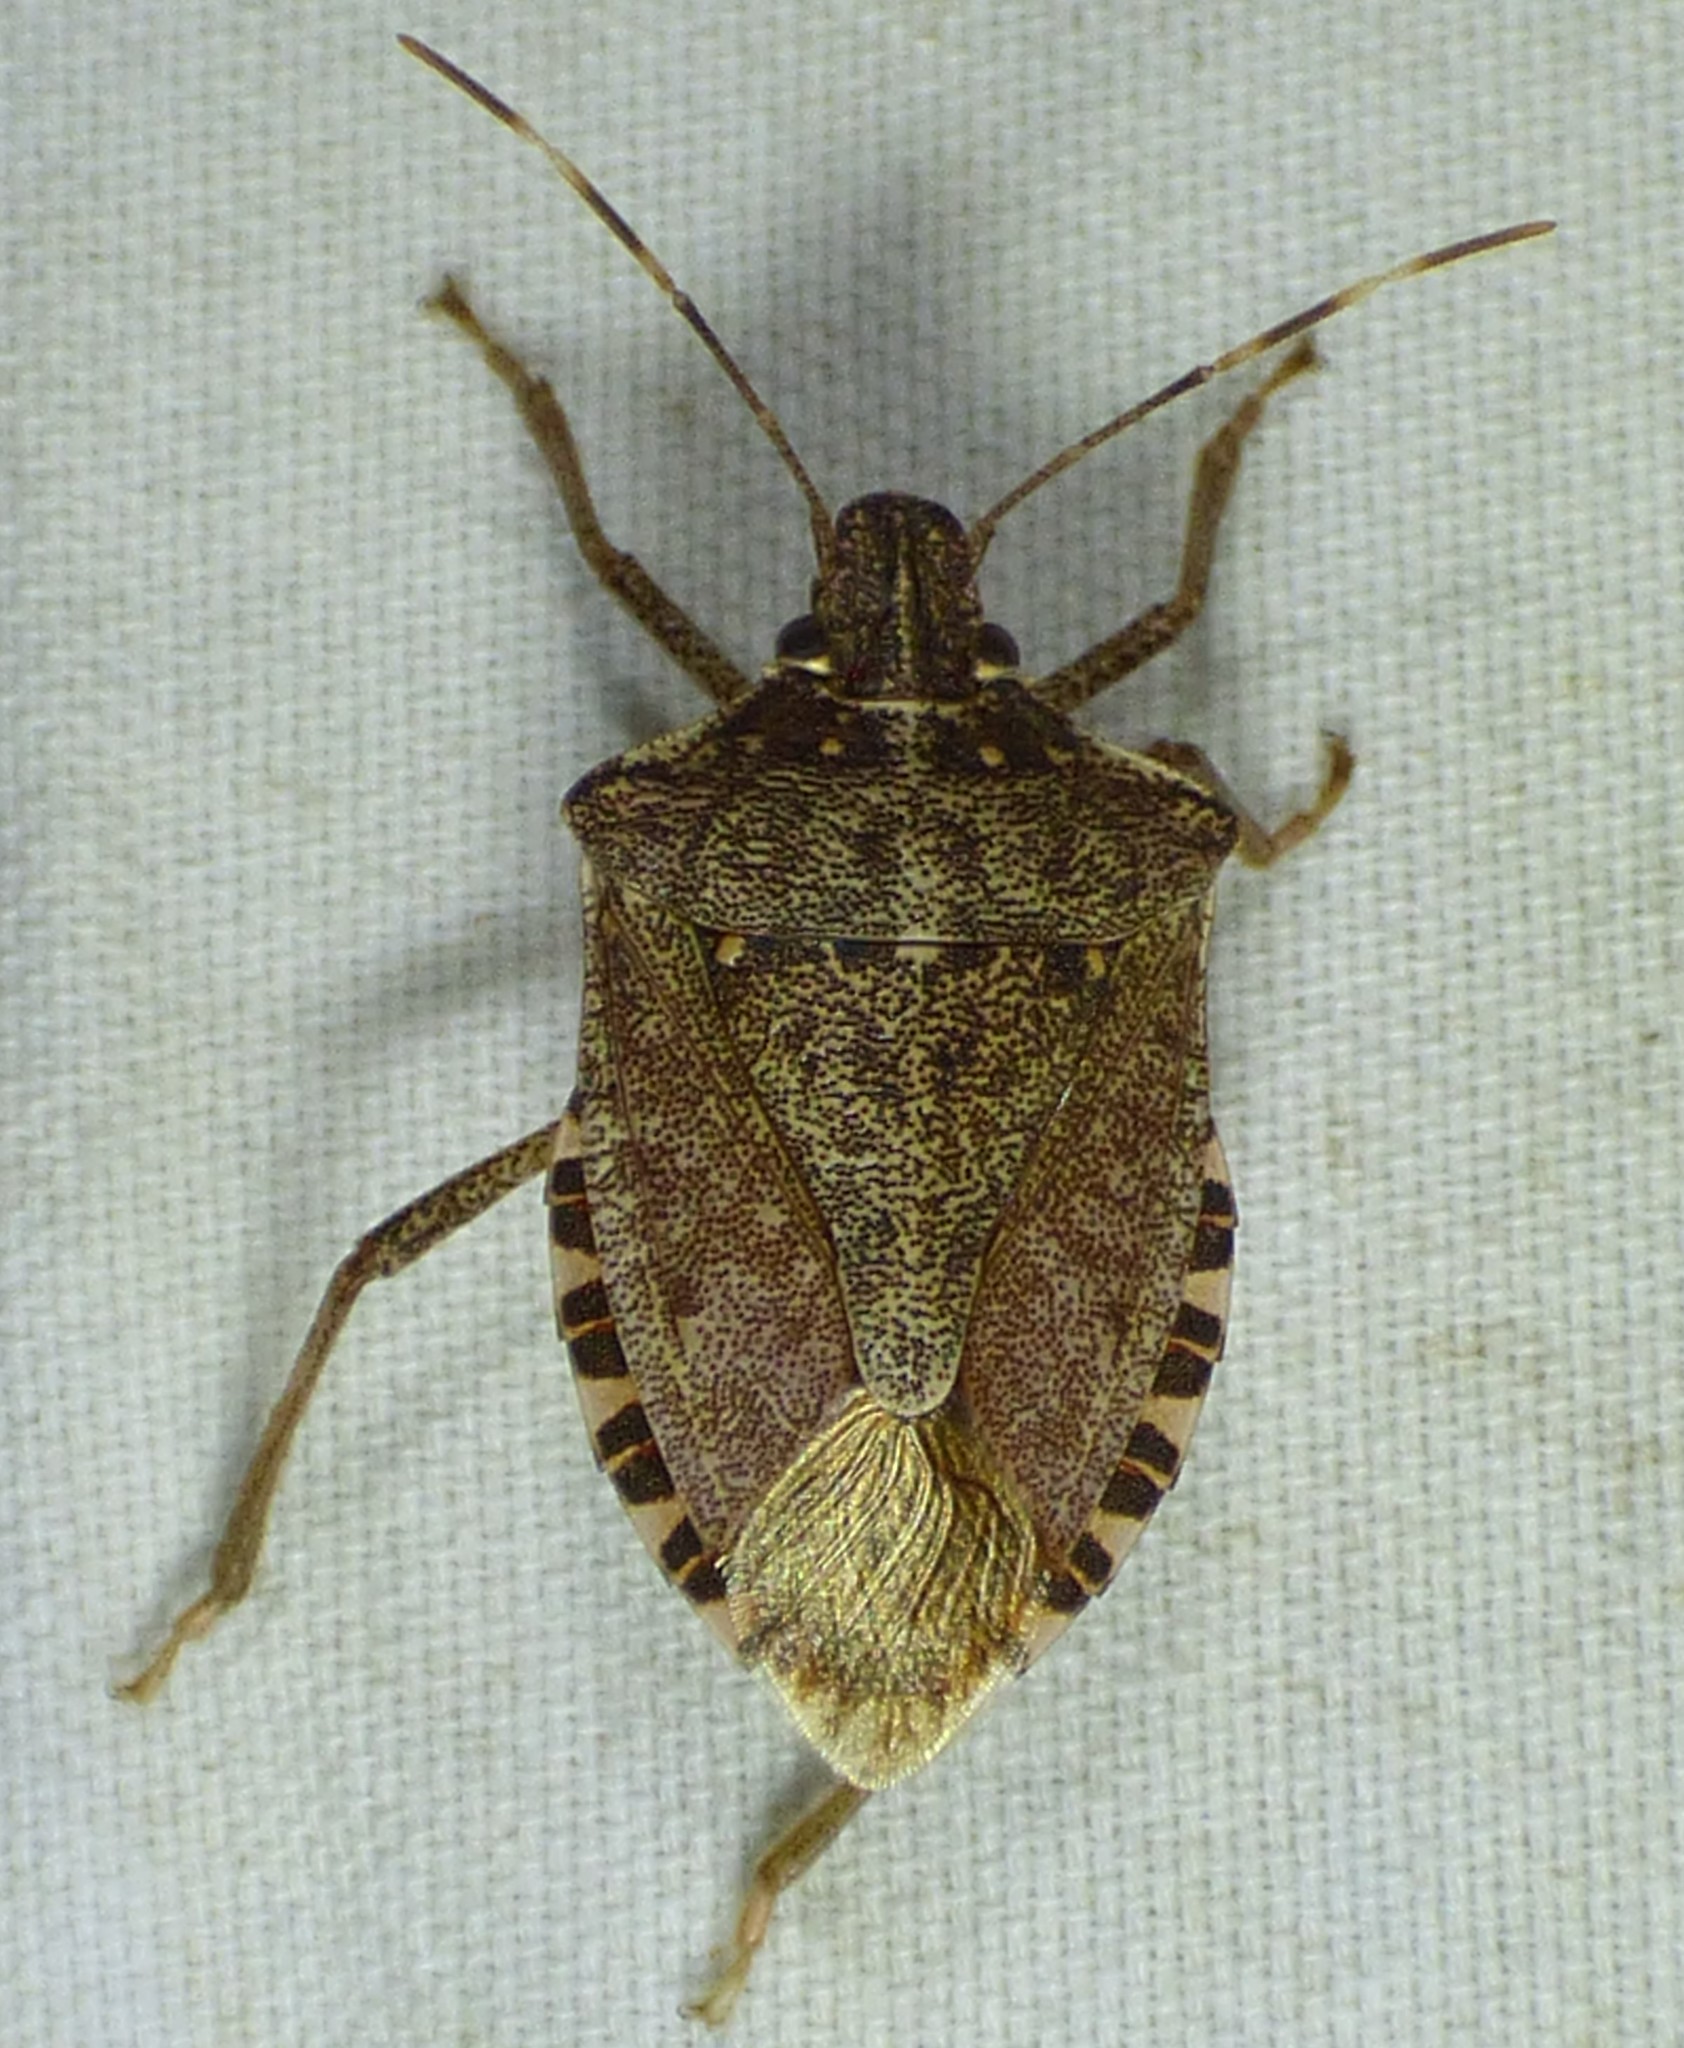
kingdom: Animalia
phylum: Arthropoda
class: Insecta
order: Hemiptera
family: Pentatomidae
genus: Halyomorpha
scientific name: Halyomorpha halys
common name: Brown marmorated stink bug
